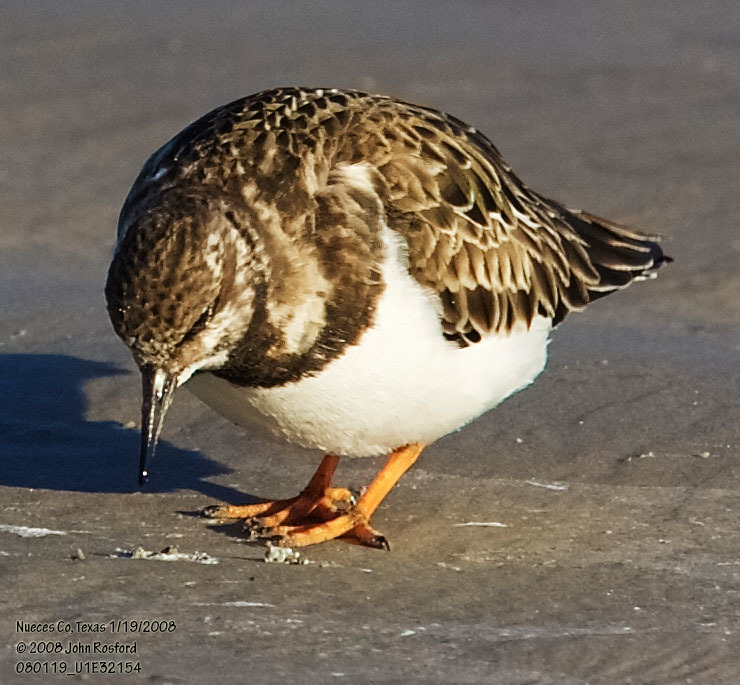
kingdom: Animalia
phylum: Chordata
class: Aves
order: Charadriiformes
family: Scolopacidae
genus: Arenaria
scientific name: Arenaria interpres
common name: Ruddy turnstone
